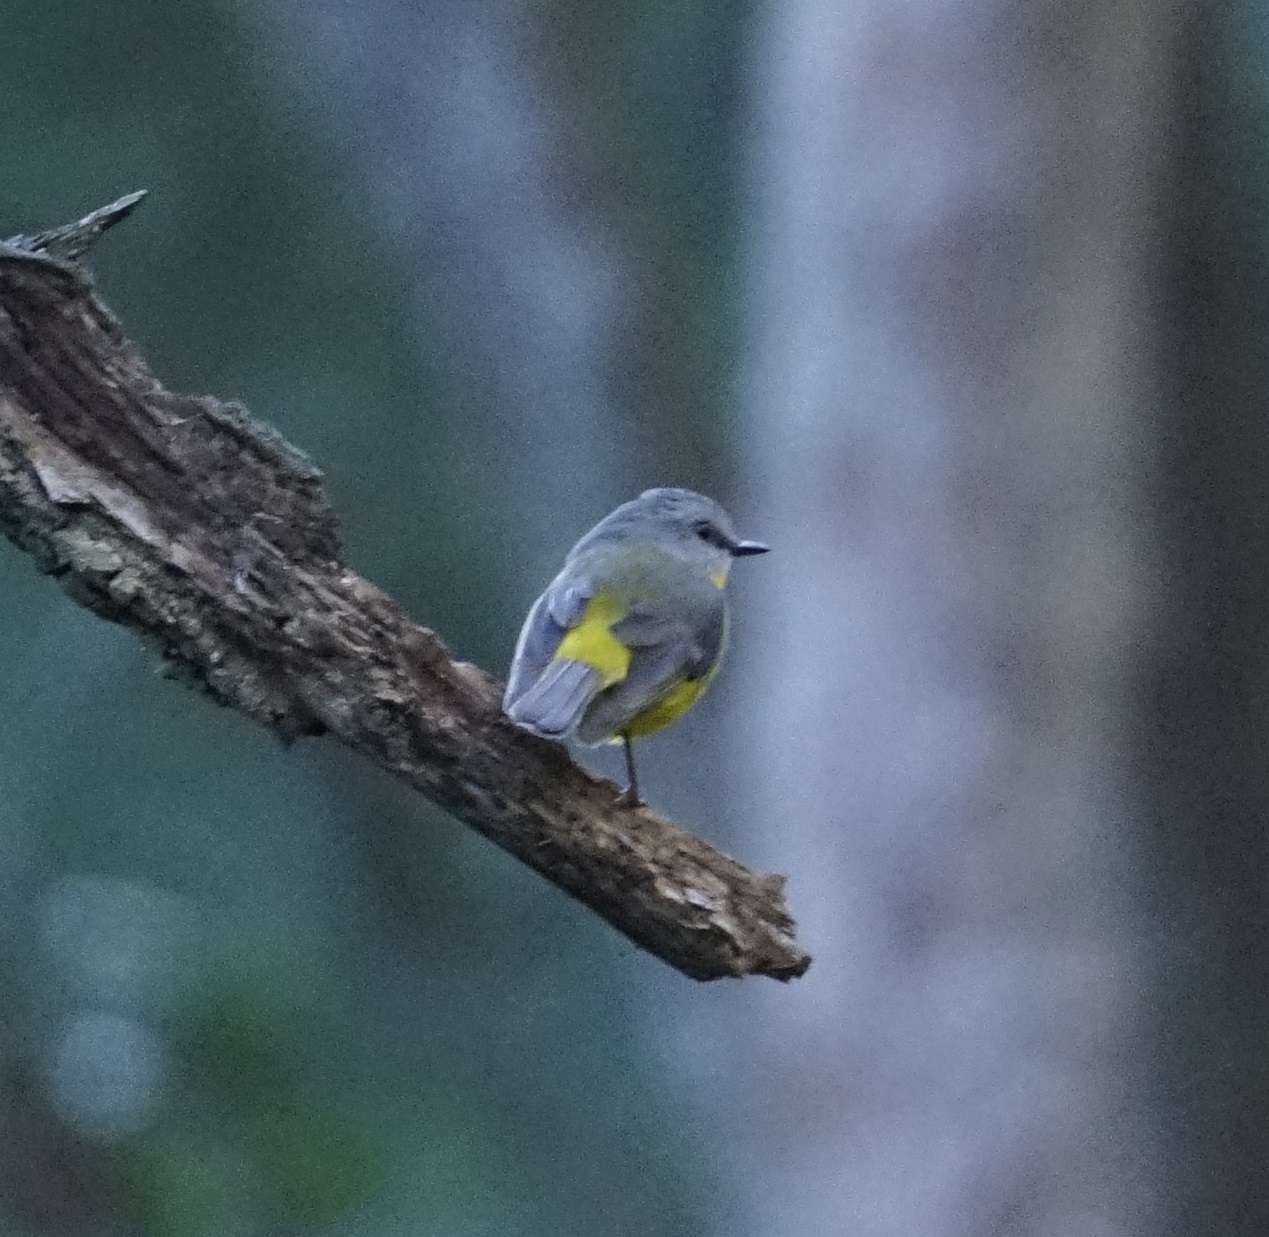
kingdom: Animalia
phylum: Chordata
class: Aves
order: Passeriformes
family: Petroicidae
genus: Eopsaltria
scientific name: Eopsaltria australis
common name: Eastern yellow robin
